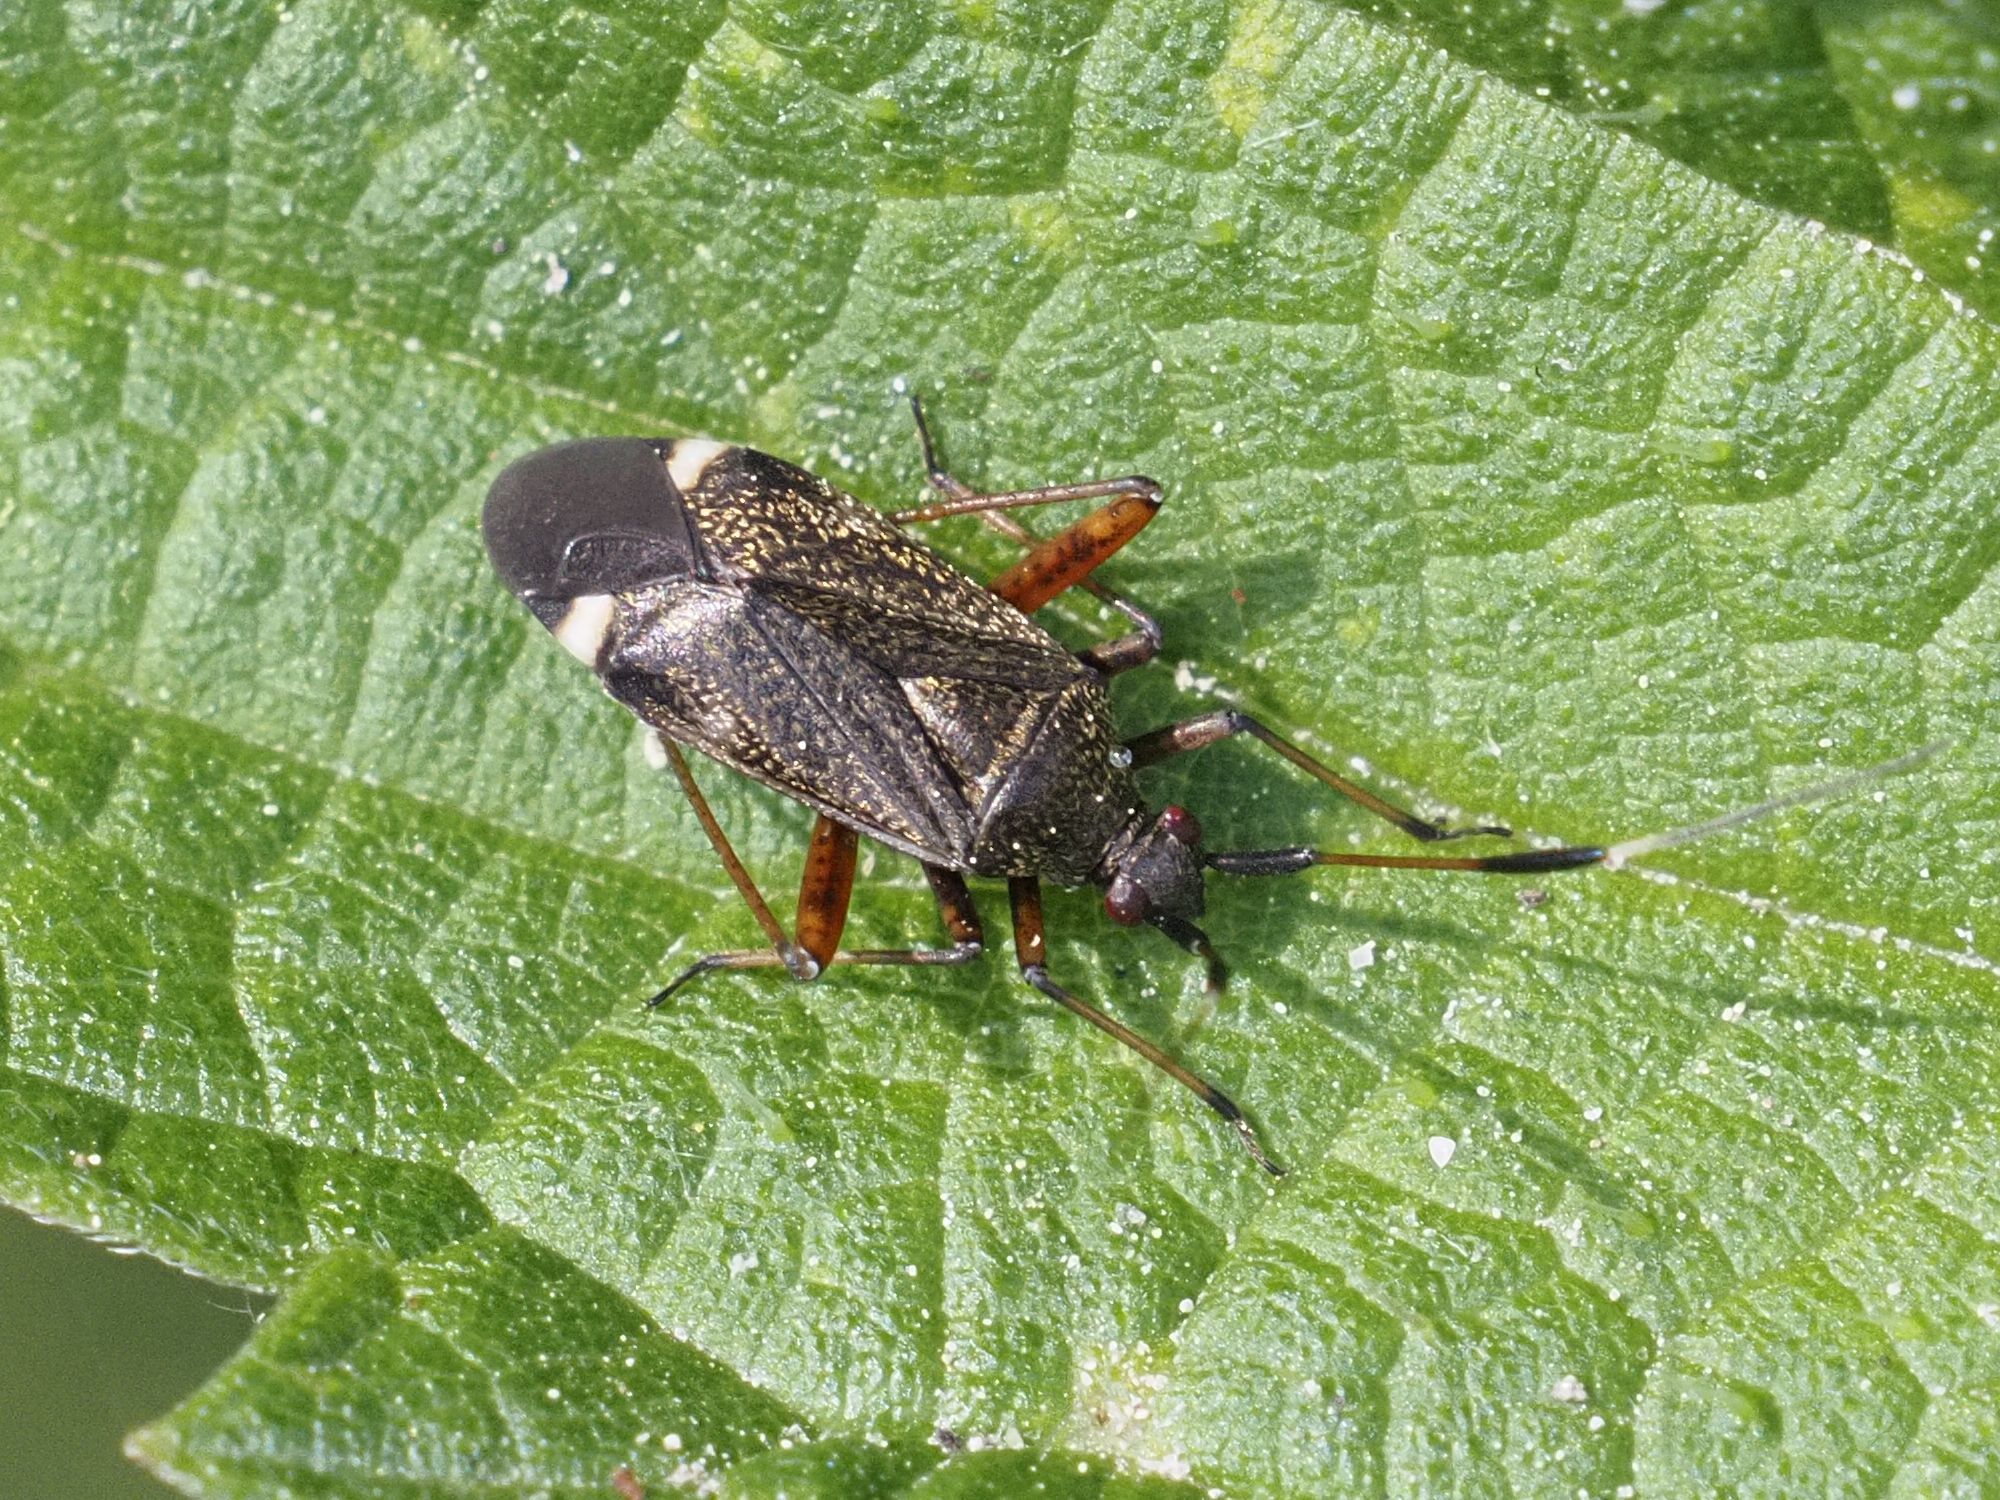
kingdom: Animalia
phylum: Arthropoda
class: Insecta
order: Hemiptera
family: Miridae
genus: Closterotomus
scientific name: Closterotomus biclavatus
